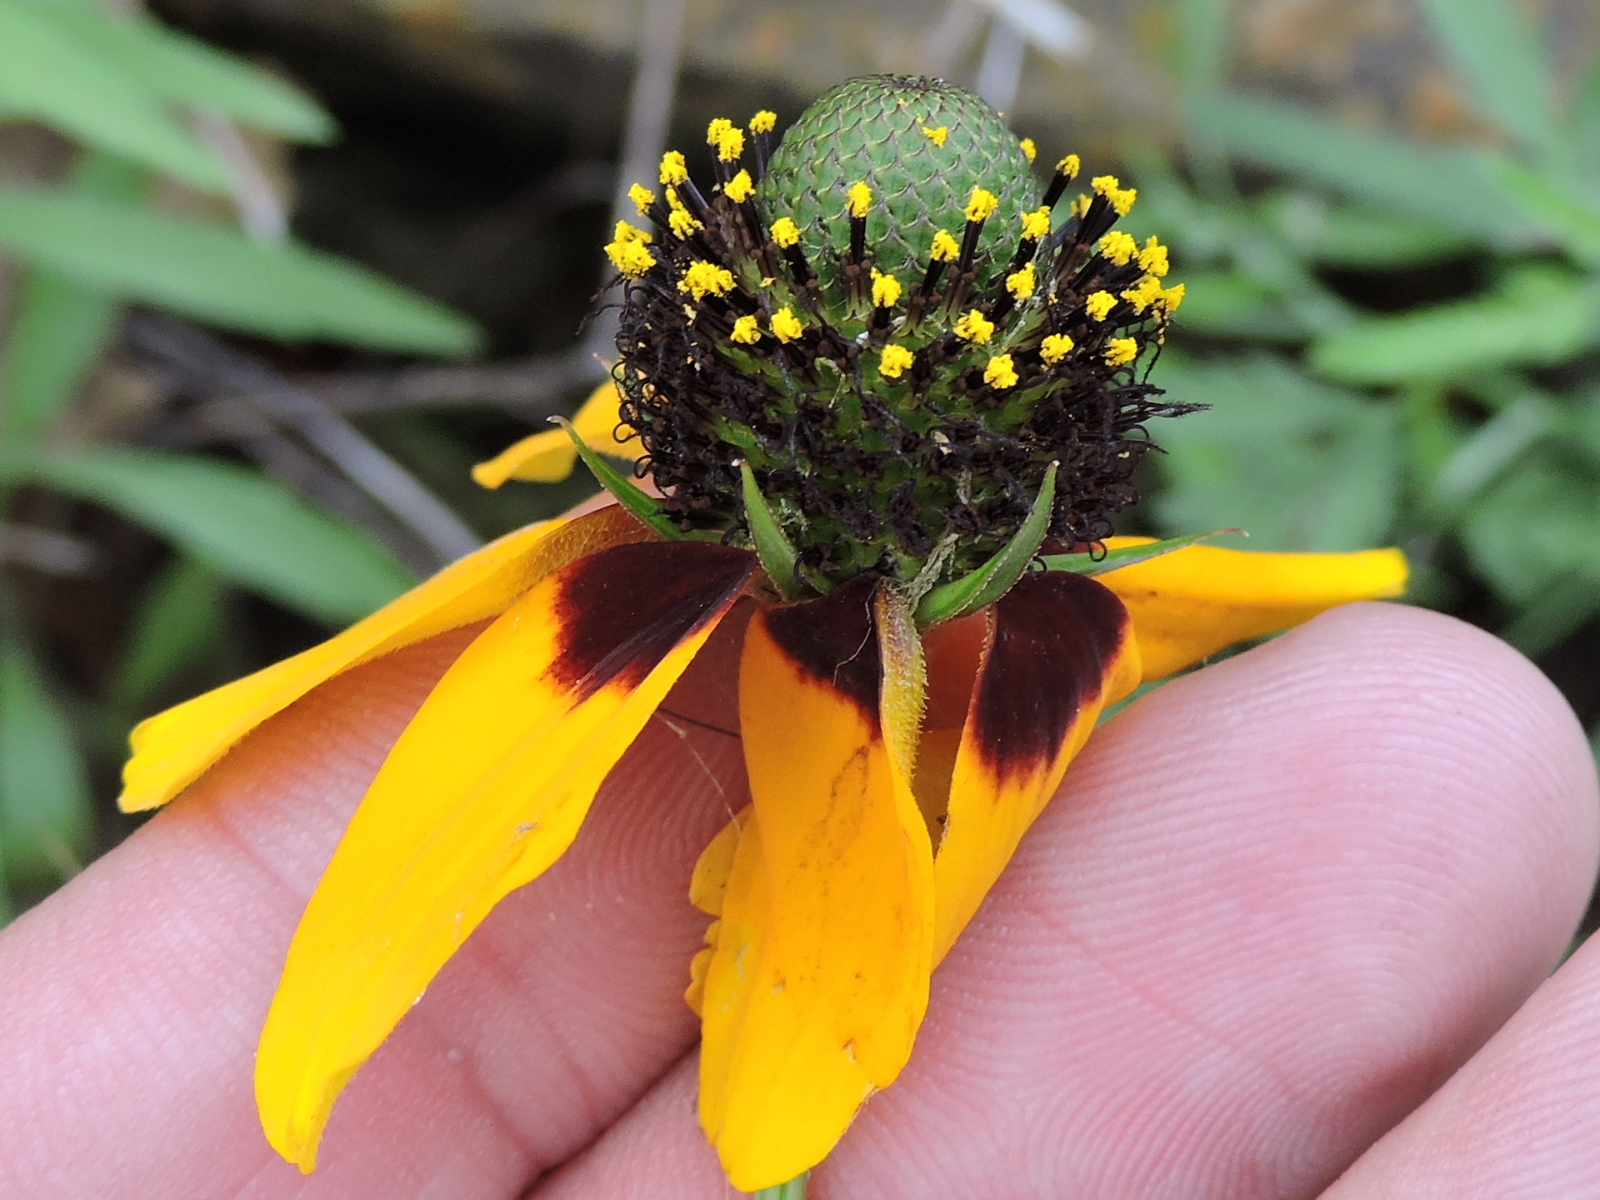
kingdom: Plantae
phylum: Tracheophyta
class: Magnoliopsida
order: Asterales
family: Asteraceae
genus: Rudbeckia
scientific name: Rudbeckia amplexicaulis
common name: Clasping-leaf coneflower
